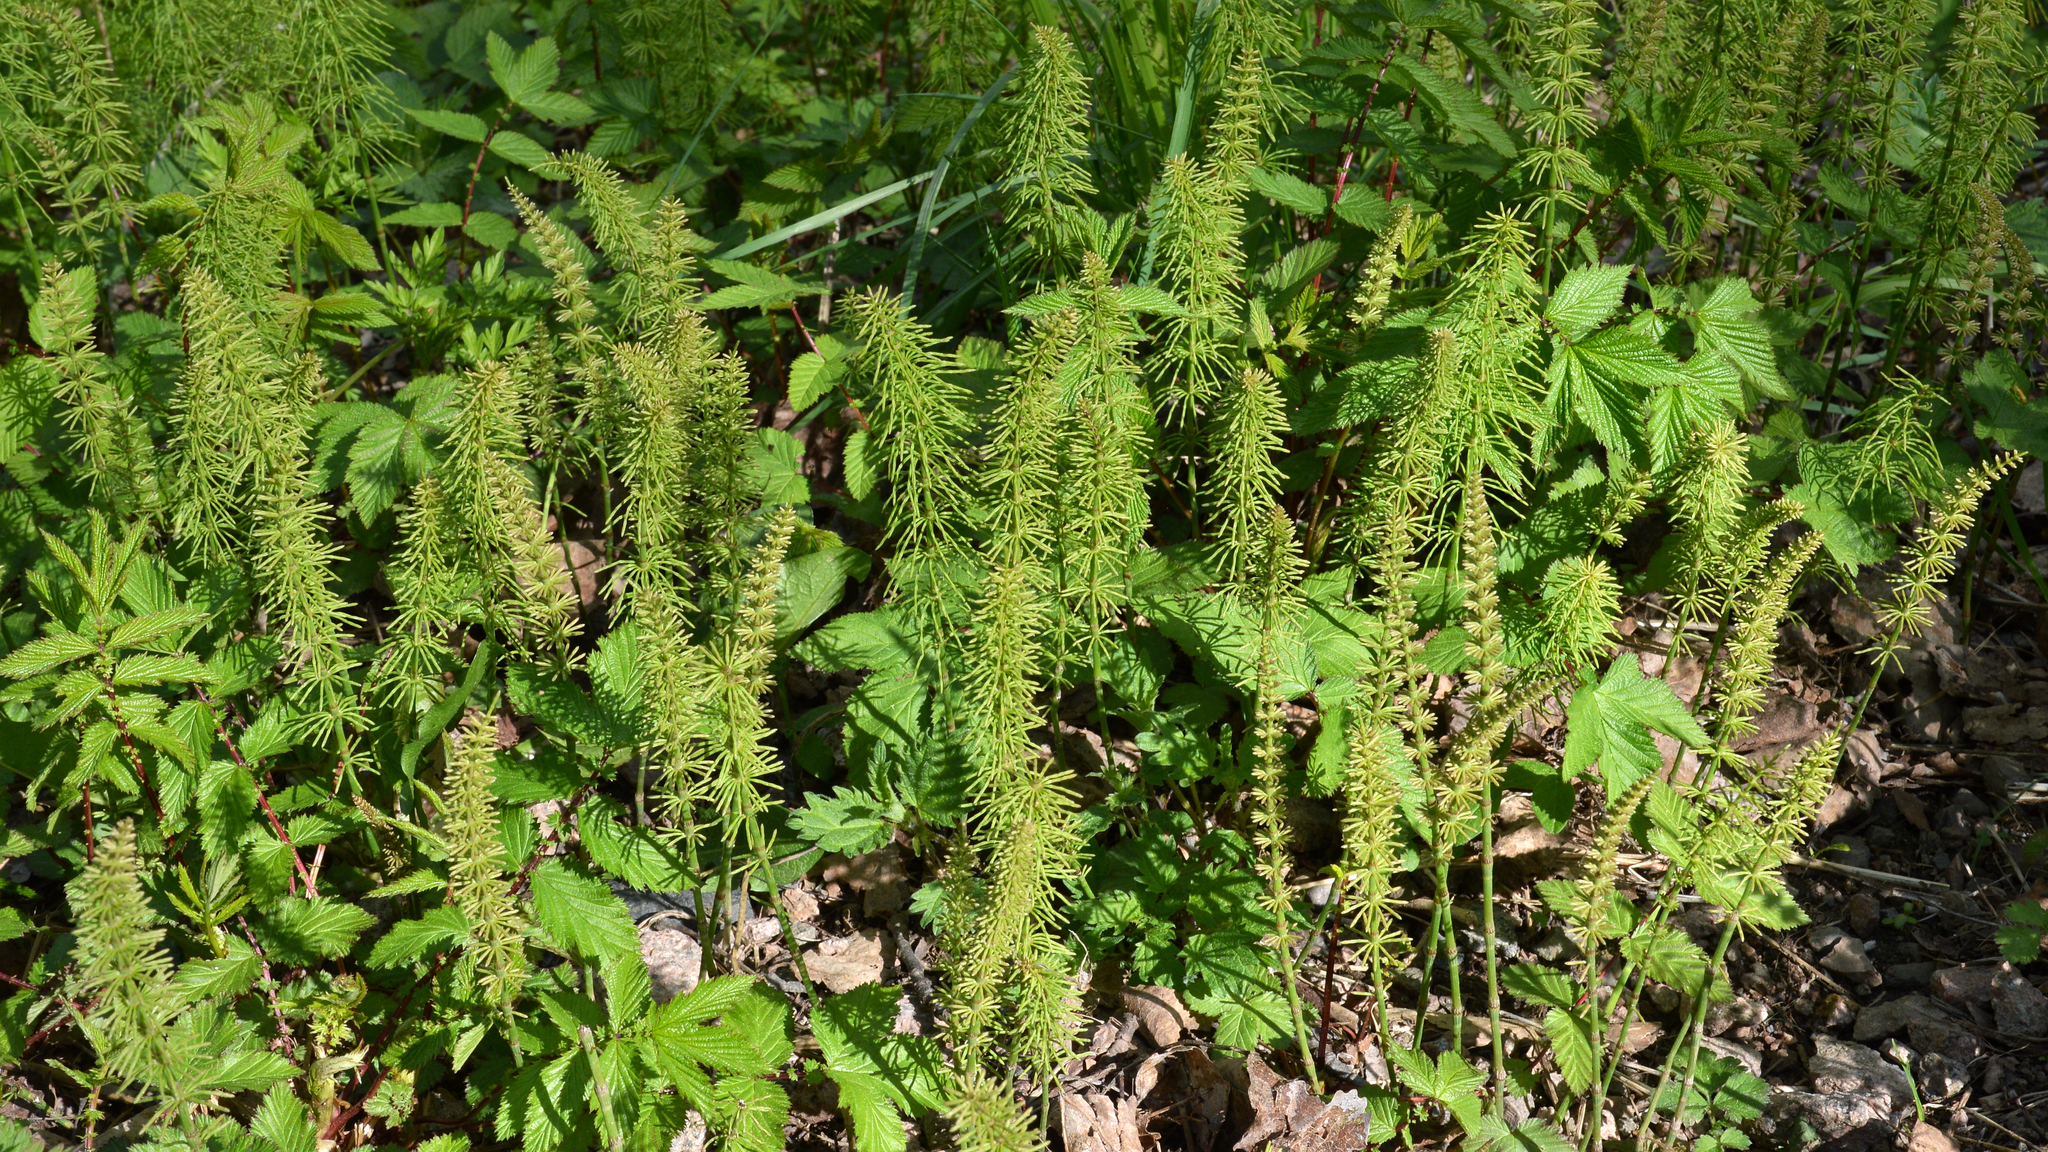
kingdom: Plantae
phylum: Tracheophyta
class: Polypodiopsida
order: Equisetales
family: Equisetaceae
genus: Equisetum
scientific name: Equisetum pratense
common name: Meadow horsetail
